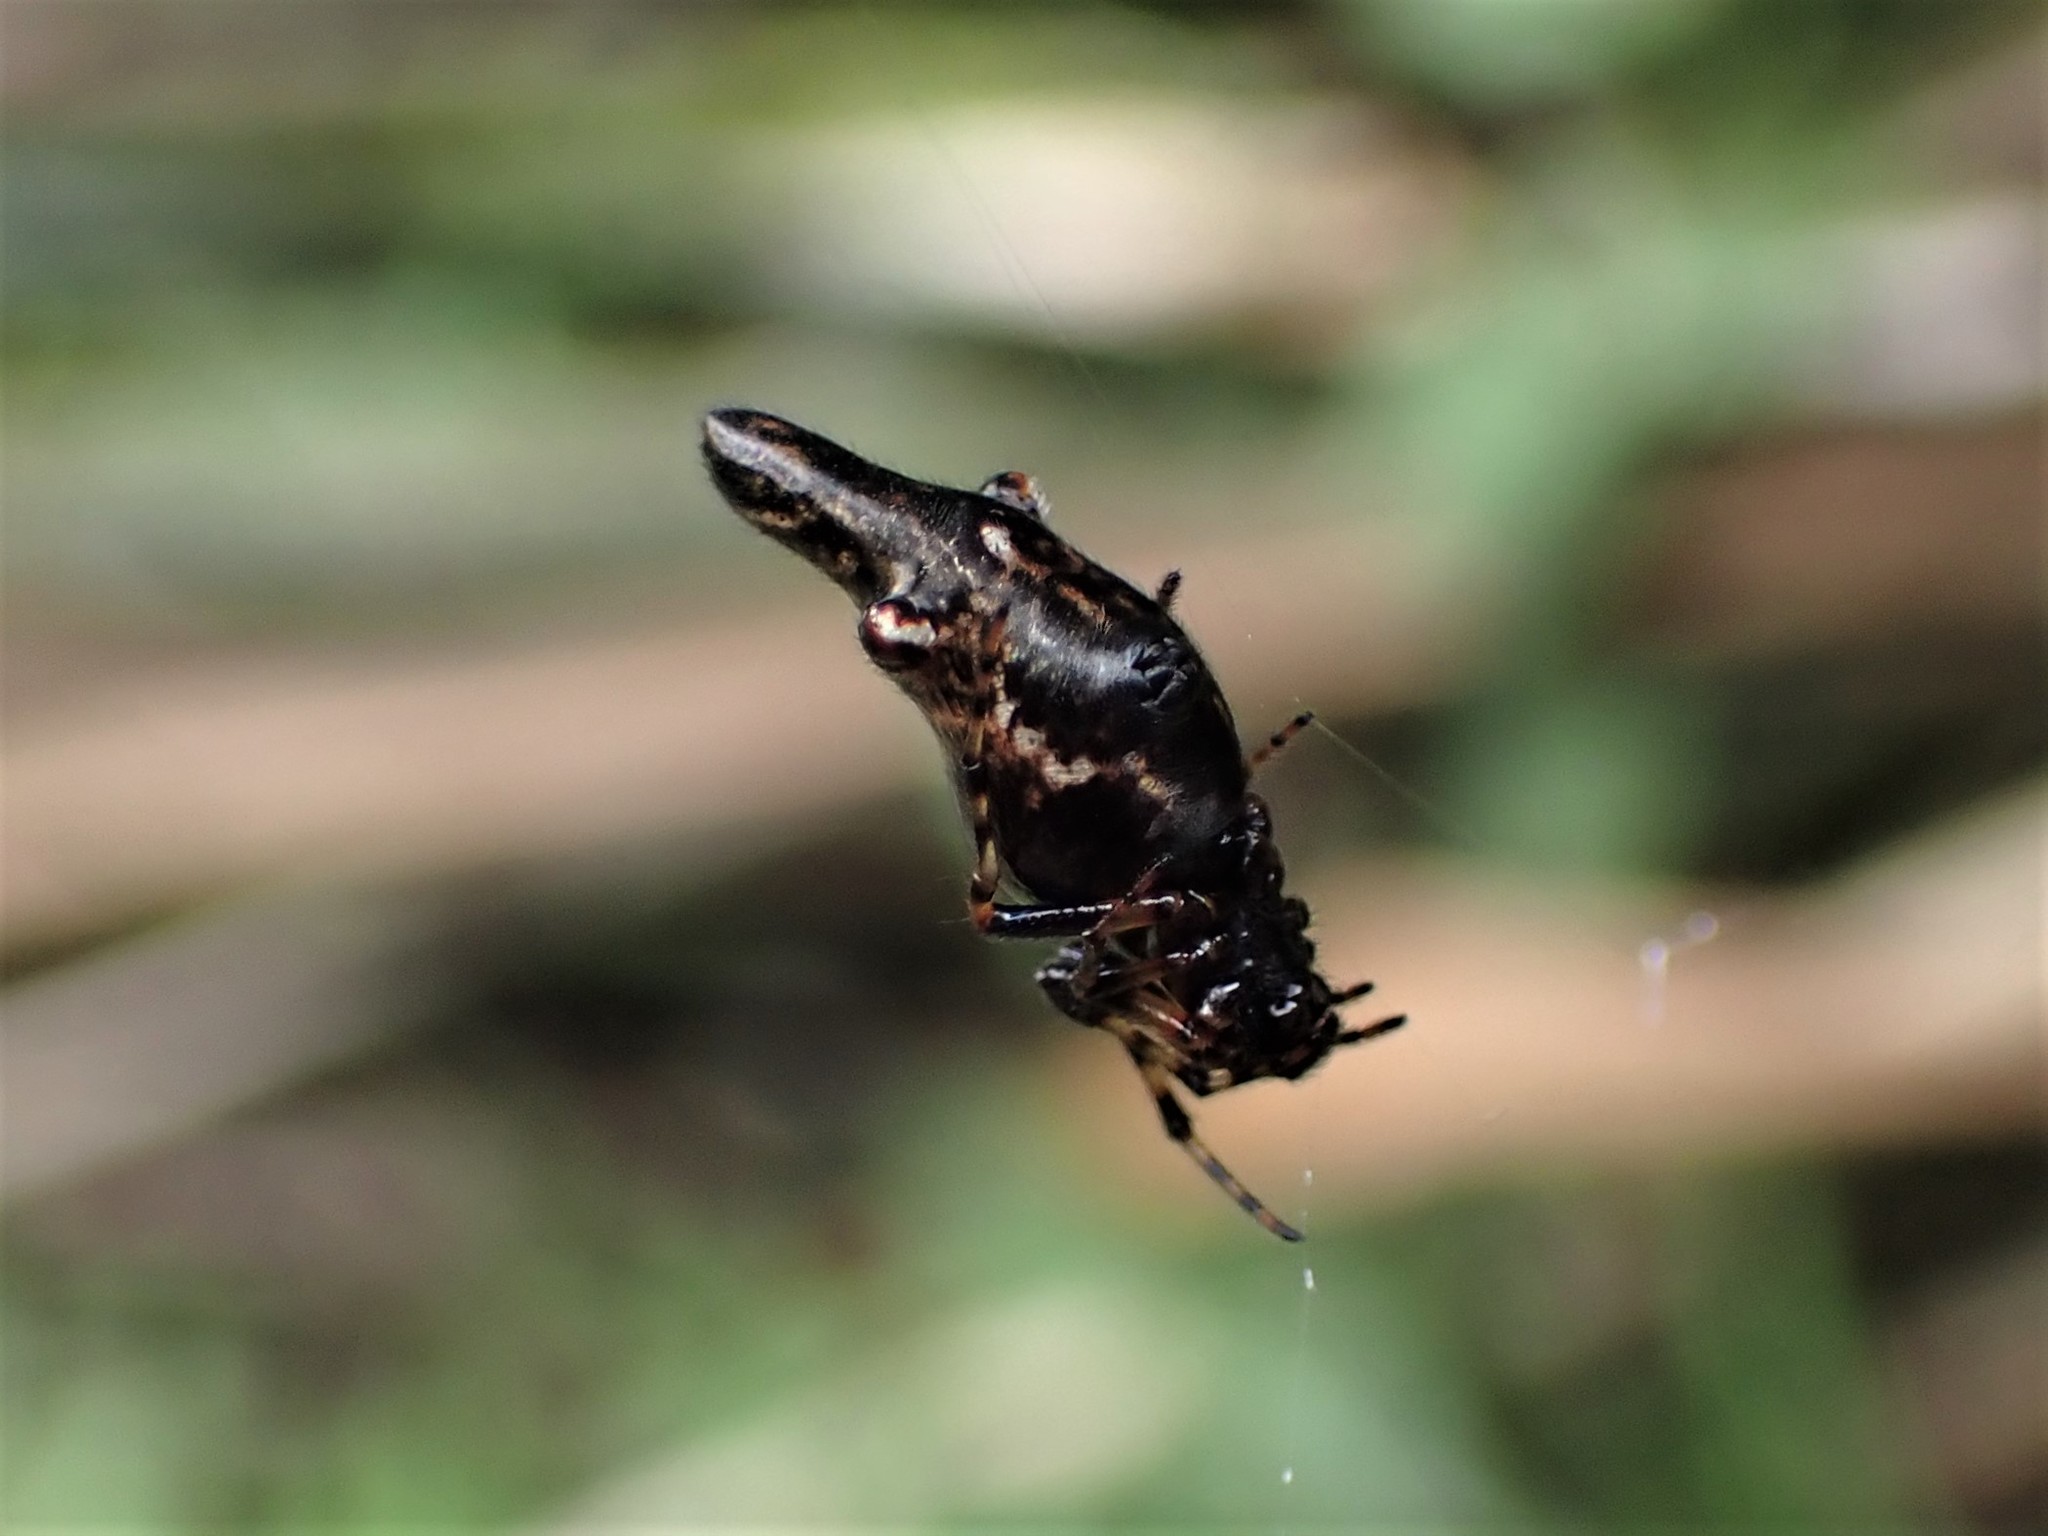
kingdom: Animalia
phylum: Arthropoda
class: Arachnida
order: Araneae
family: Araneidae
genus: Cyclosa
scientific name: Cyclosa trilobata
